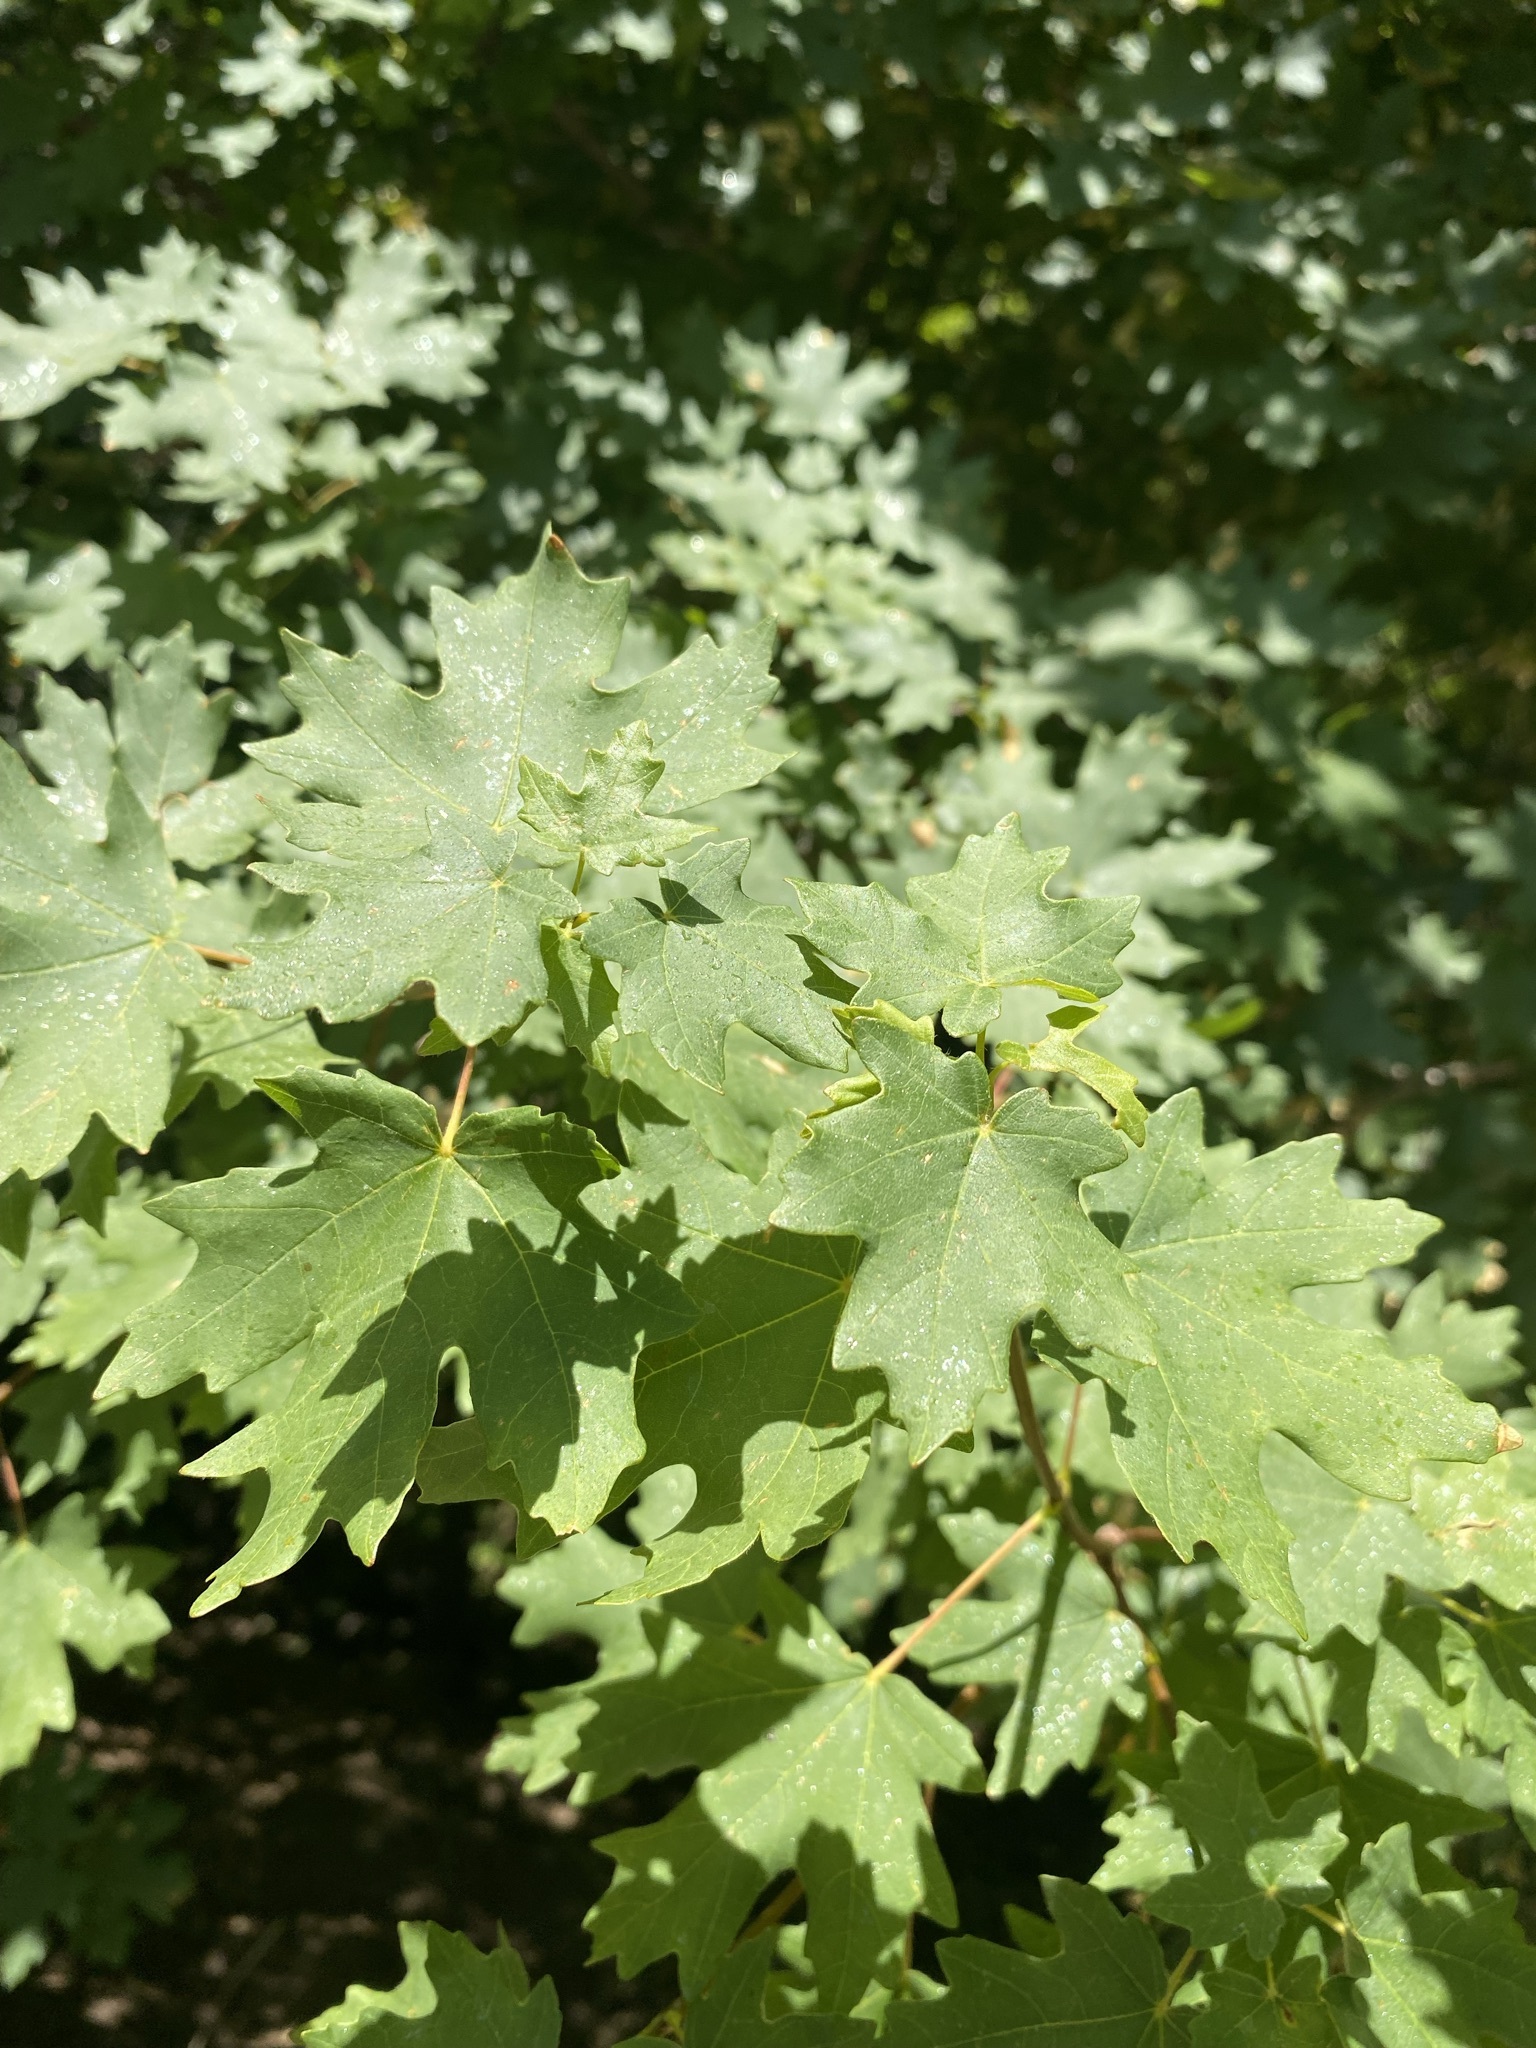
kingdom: Plantae
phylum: Tracheophyta
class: Magnoliopsida
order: Sapindales
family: Sapindaceae
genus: Acer
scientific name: Acer grandidentatum
